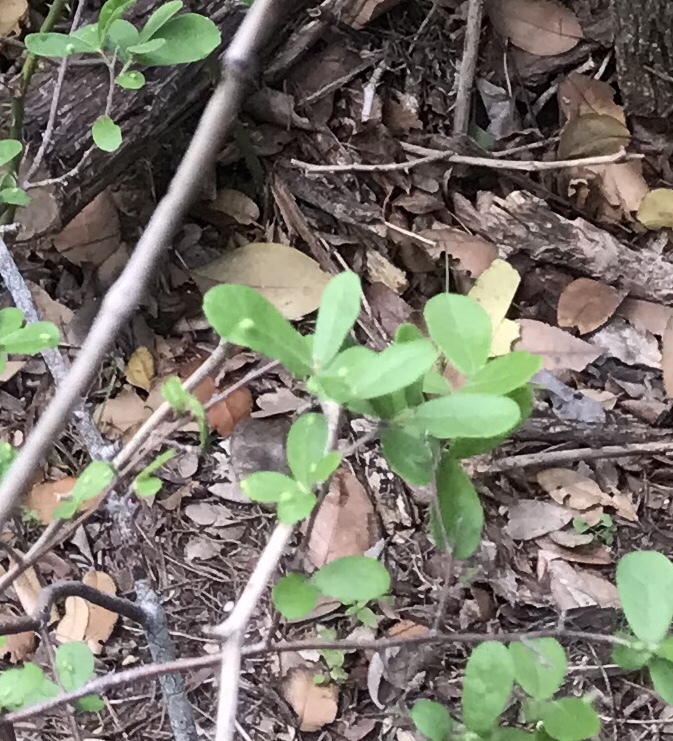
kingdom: Plantae
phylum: Tracheophyta
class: Magnoliopsida
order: Ericales
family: Ebenaceae
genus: Diospyros
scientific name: Diospyros texana
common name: Texas persimmon
